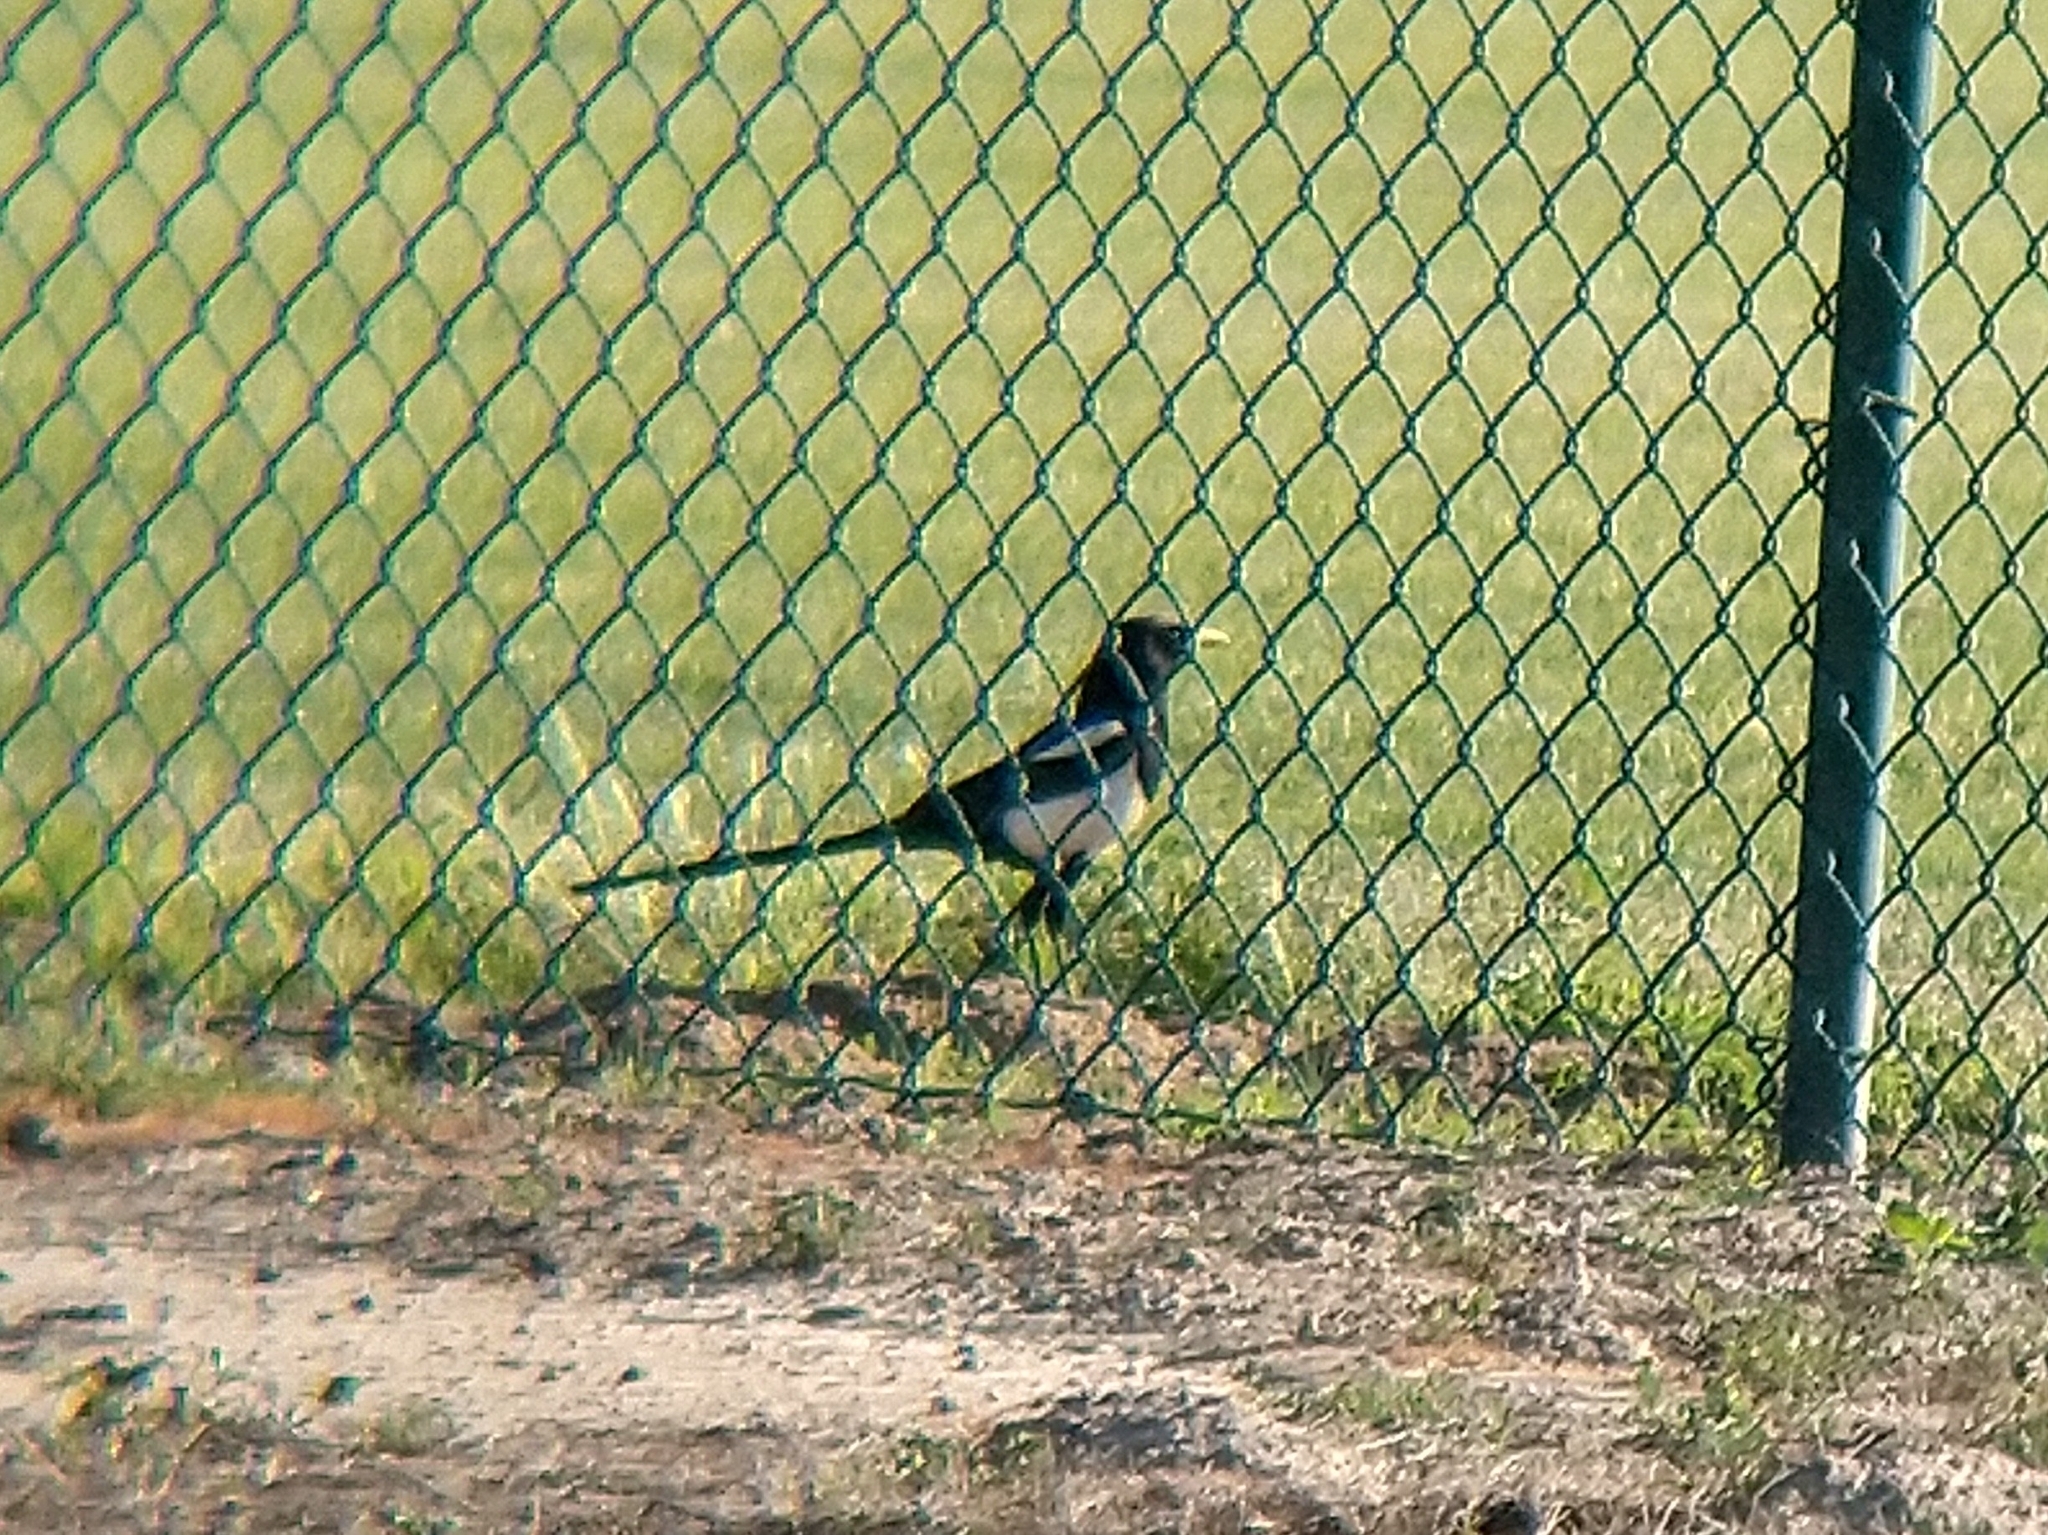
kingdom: Animalia
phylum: Chordata
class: Aves
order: Passeriformes
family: Corvidae
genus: Pica
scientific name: Pica nuttalli
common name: Yellow-billed magpie
